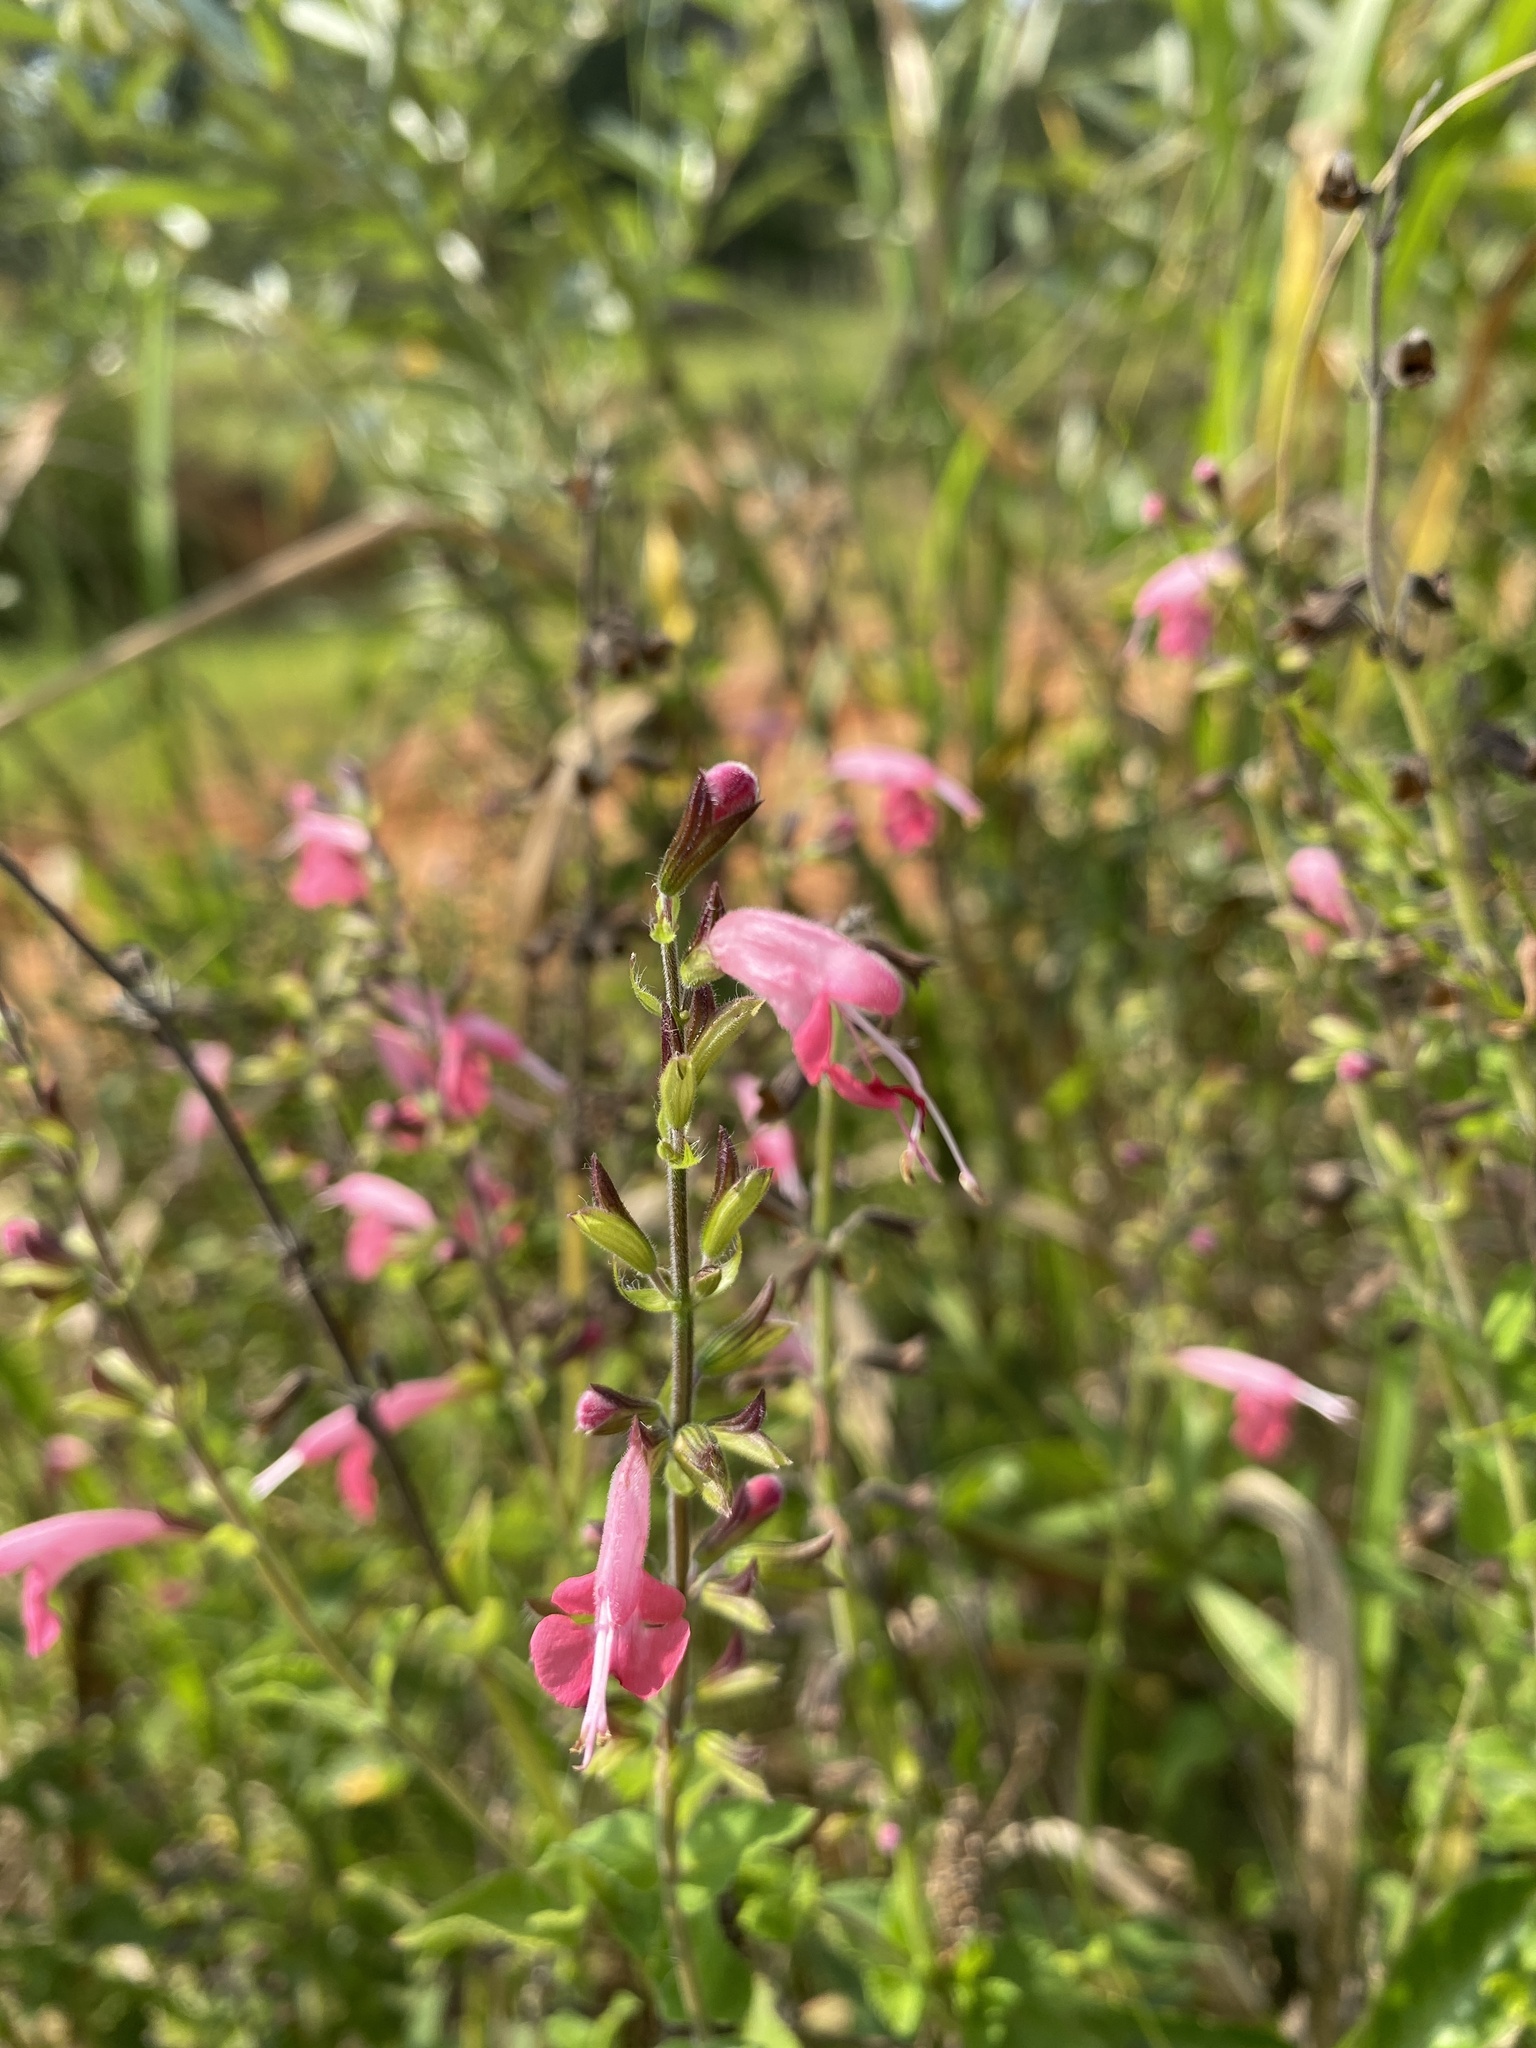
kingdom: Plantae
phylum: Tracheophyta
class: Magnoliopsida
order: Lamiales
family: Lamiaceae
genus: Salvia
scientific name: Salvia coccinea
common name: Blood sage
